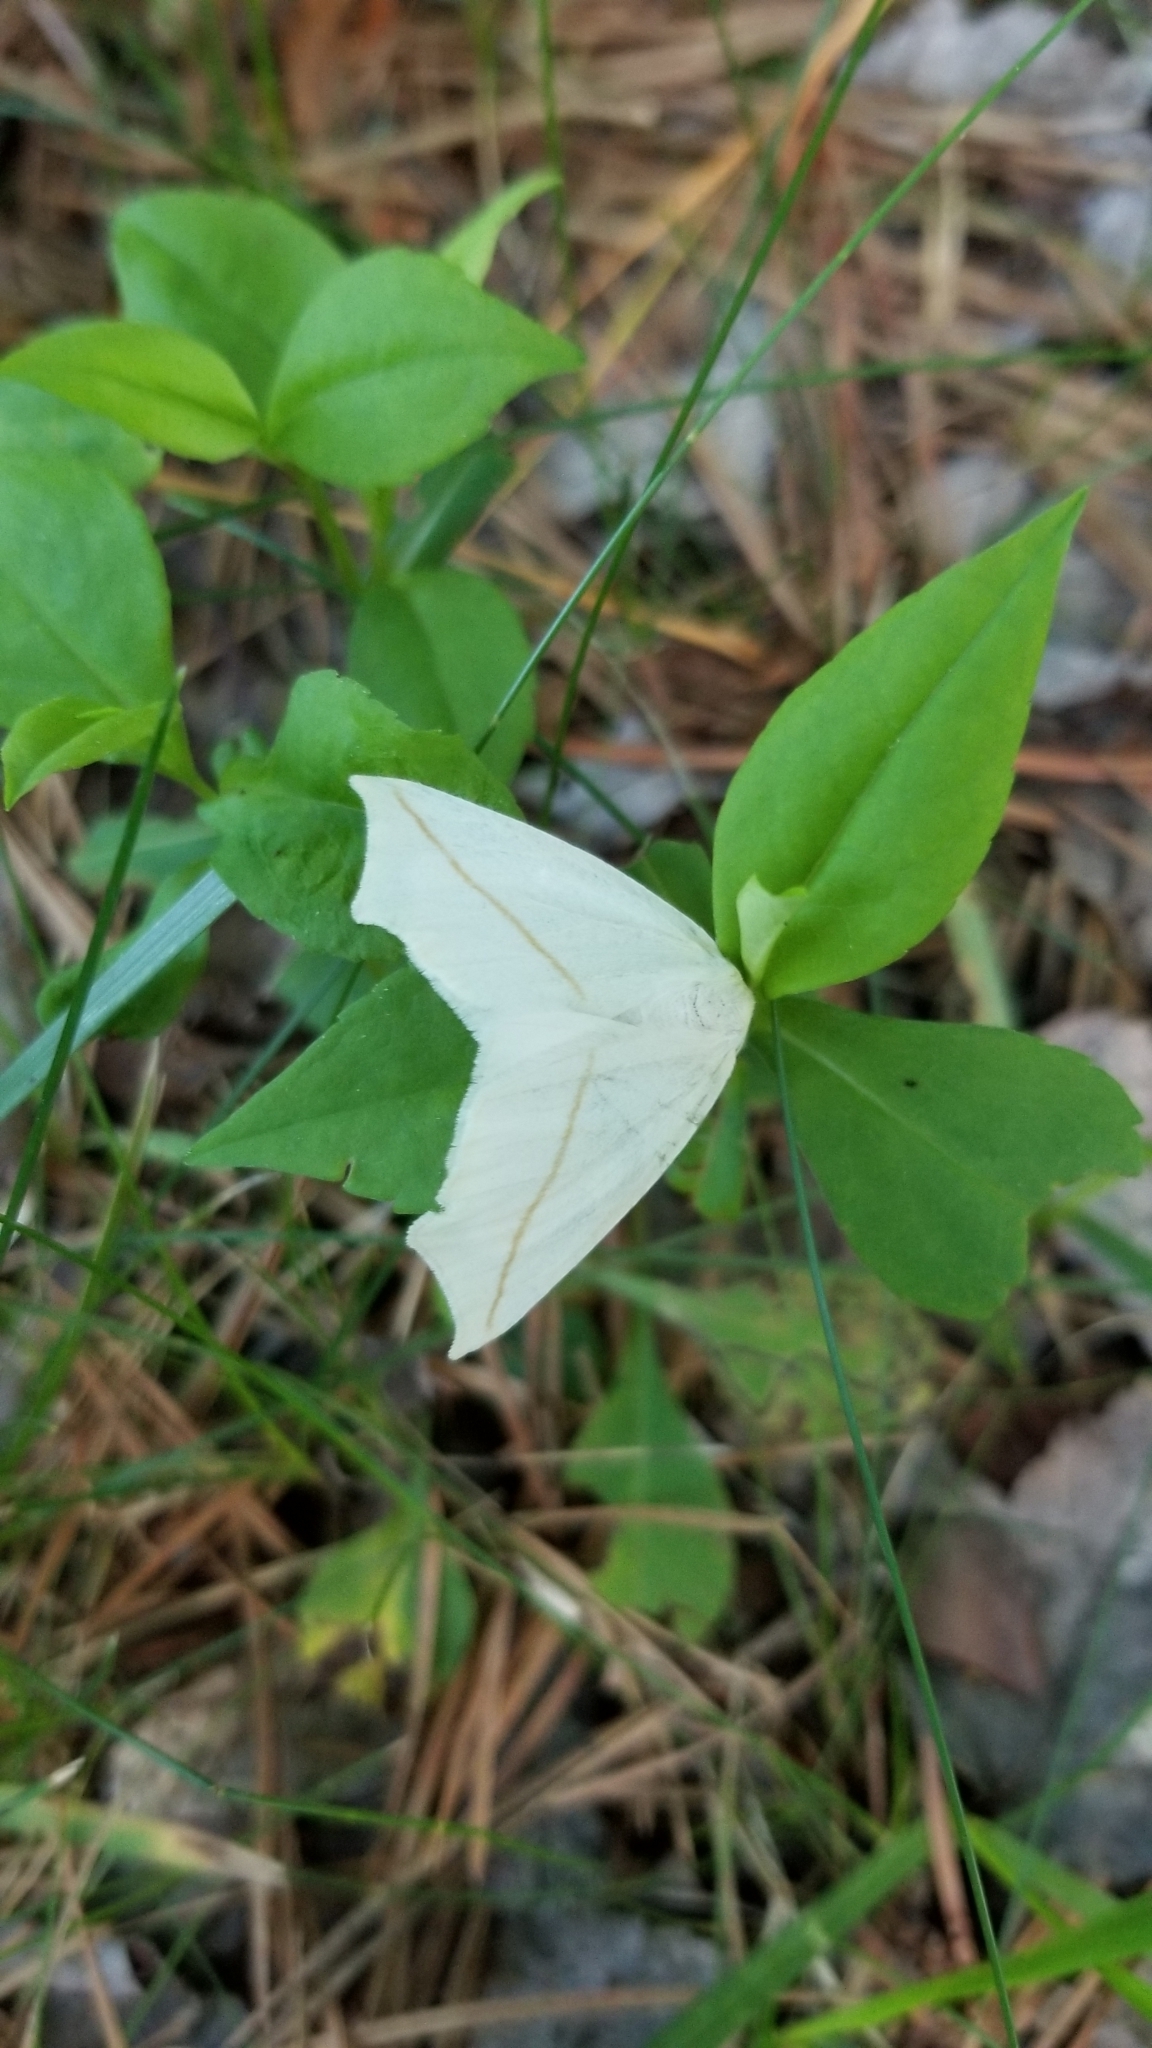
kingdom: Animalia
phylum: Arthropoda
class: Insecta
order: Lepidoptera
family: Geometridae
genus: Tetracis
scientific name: Tetracis cachexiata
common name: White slant-line
